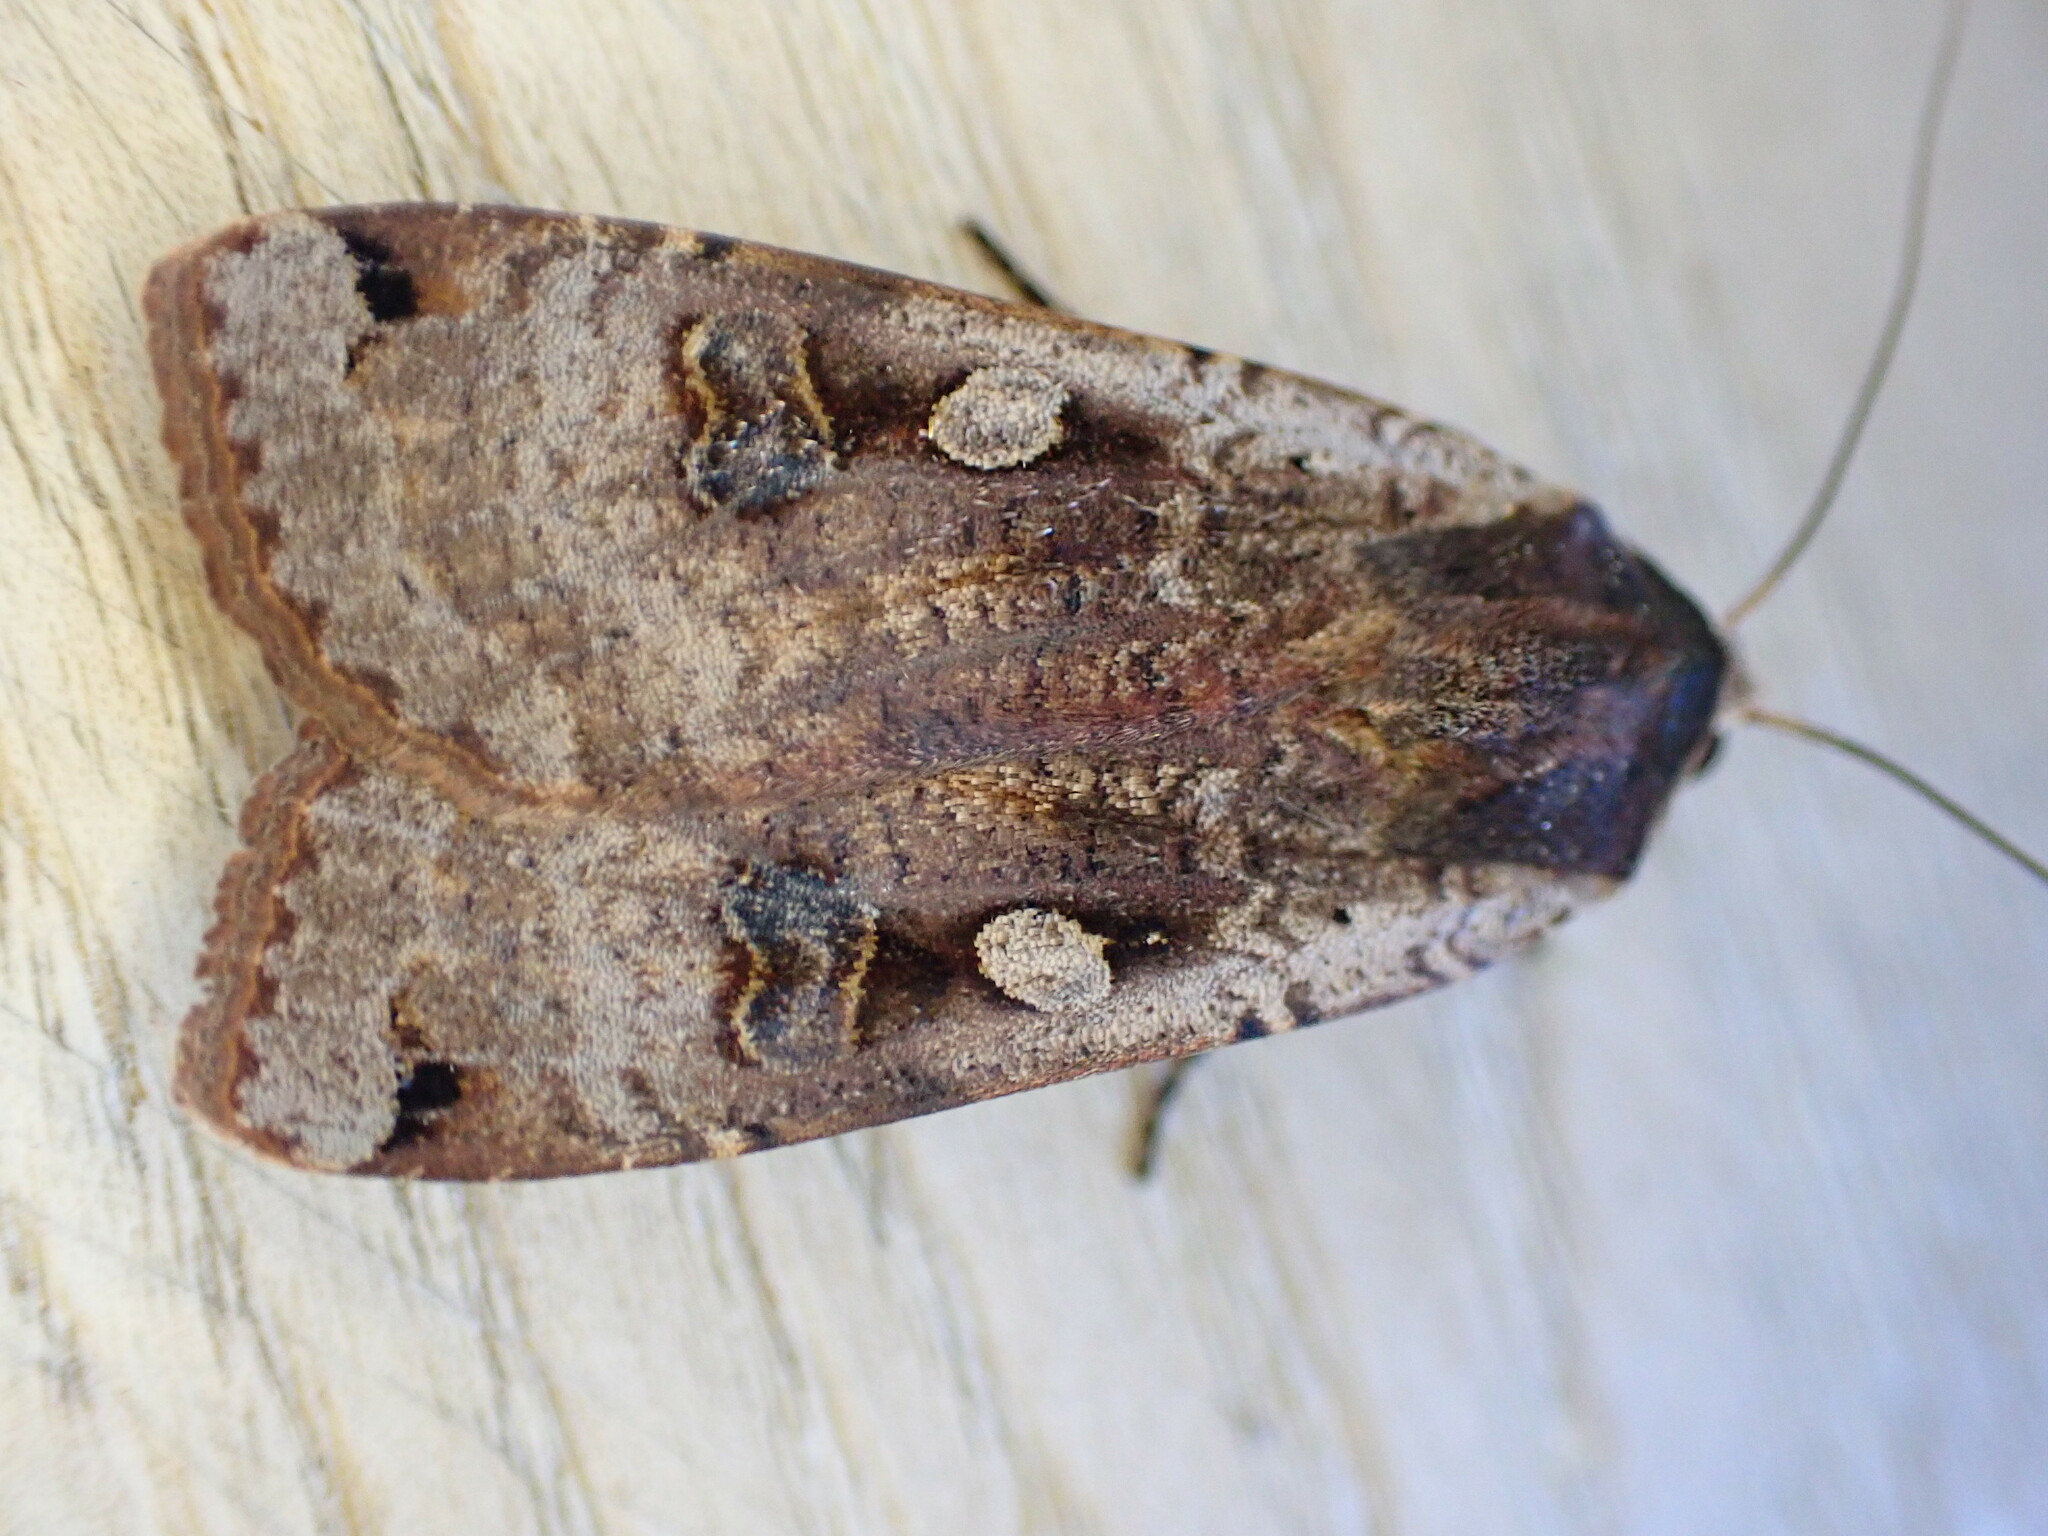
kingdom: Animalia
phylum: Arthropoda
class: Insecta
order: Lepidoptera
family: Noctuidae
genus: Noctua
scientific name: Noctua pronuba
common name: Large yellow underwing
